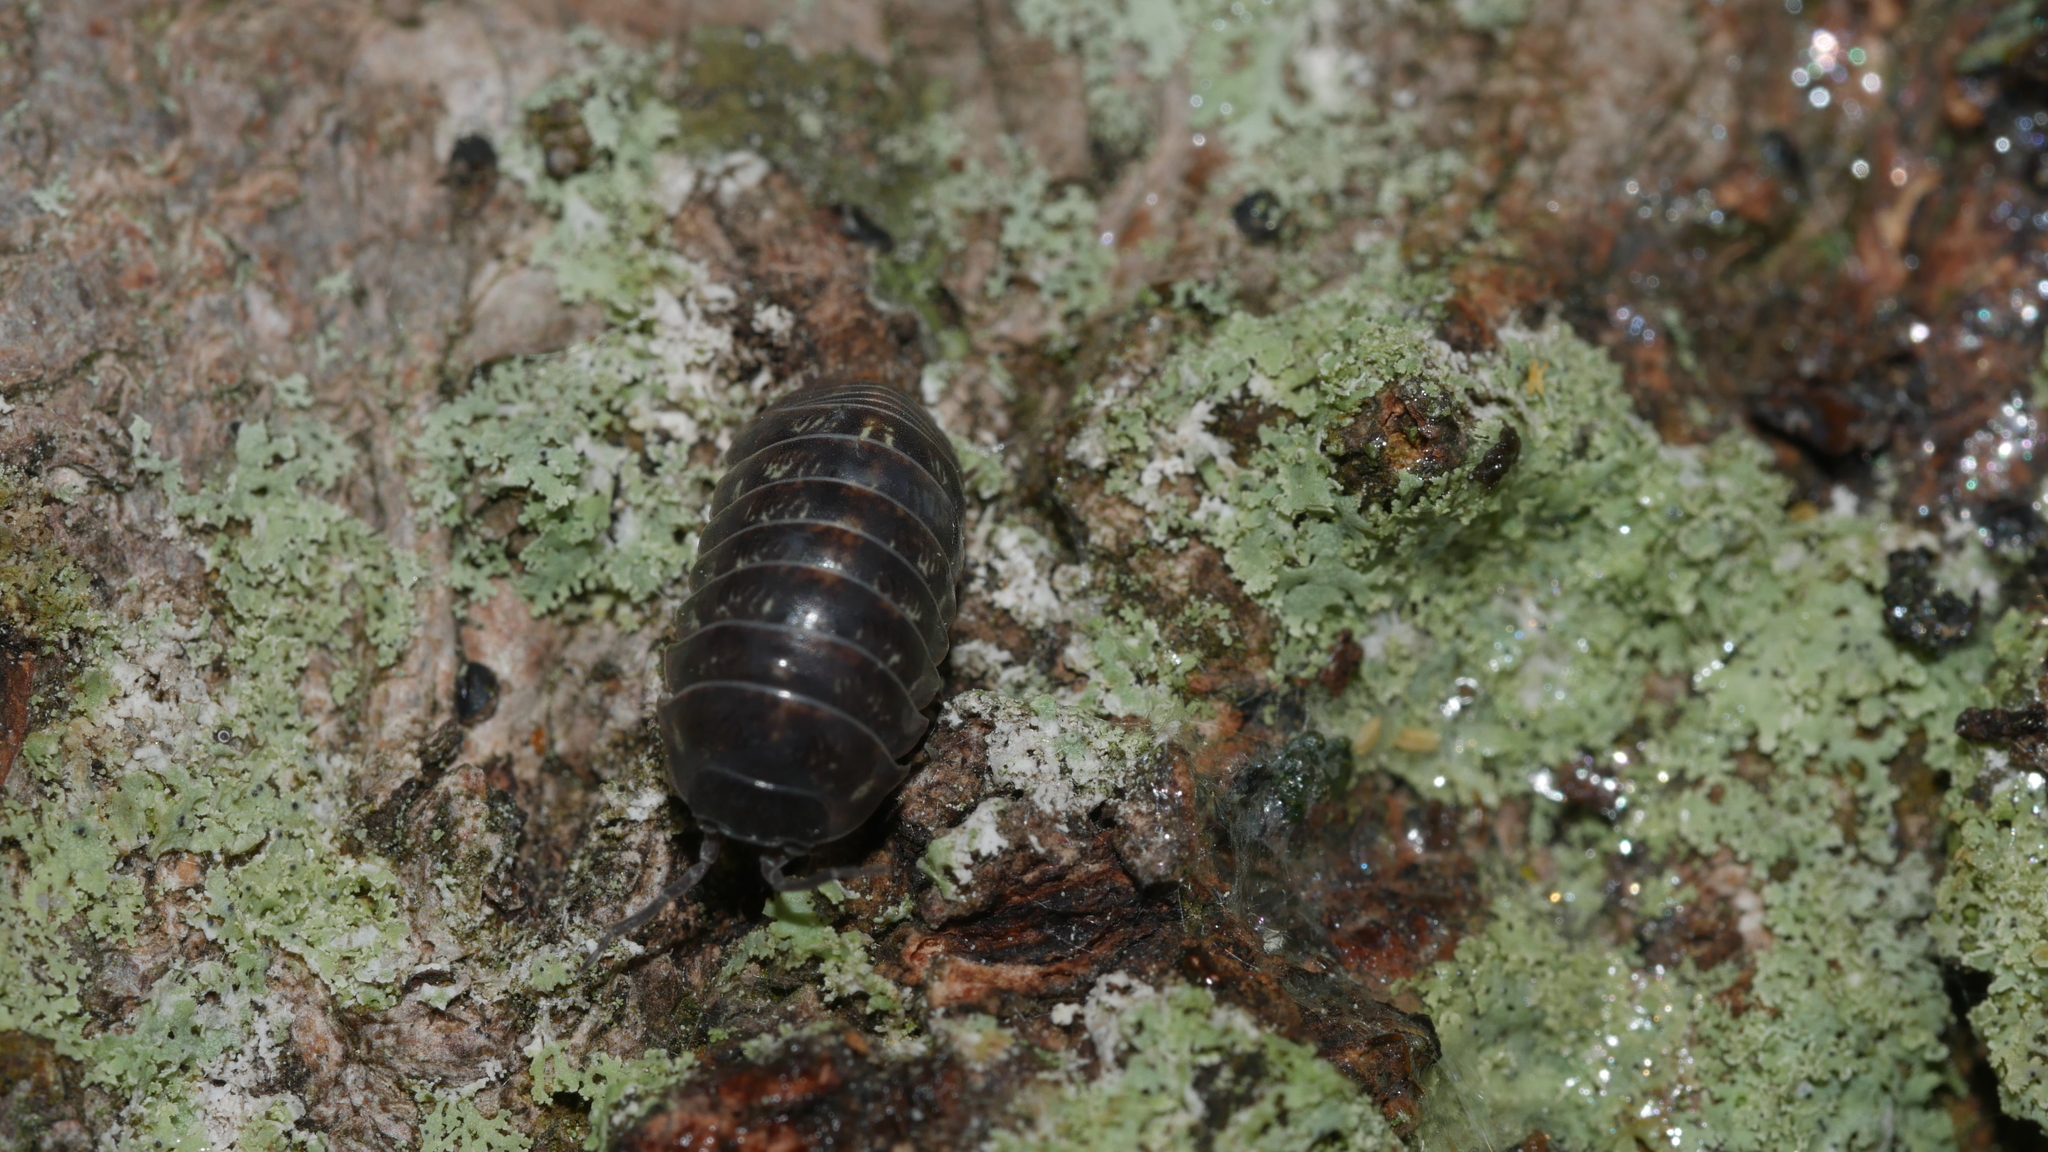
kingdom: Animalia
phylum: Arthropoda
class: Malacostraca
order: Isopoda
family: Armadillidiidae
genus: Armadillidium
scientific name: Armadillidium vulgare
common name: Common pill woodlouse
